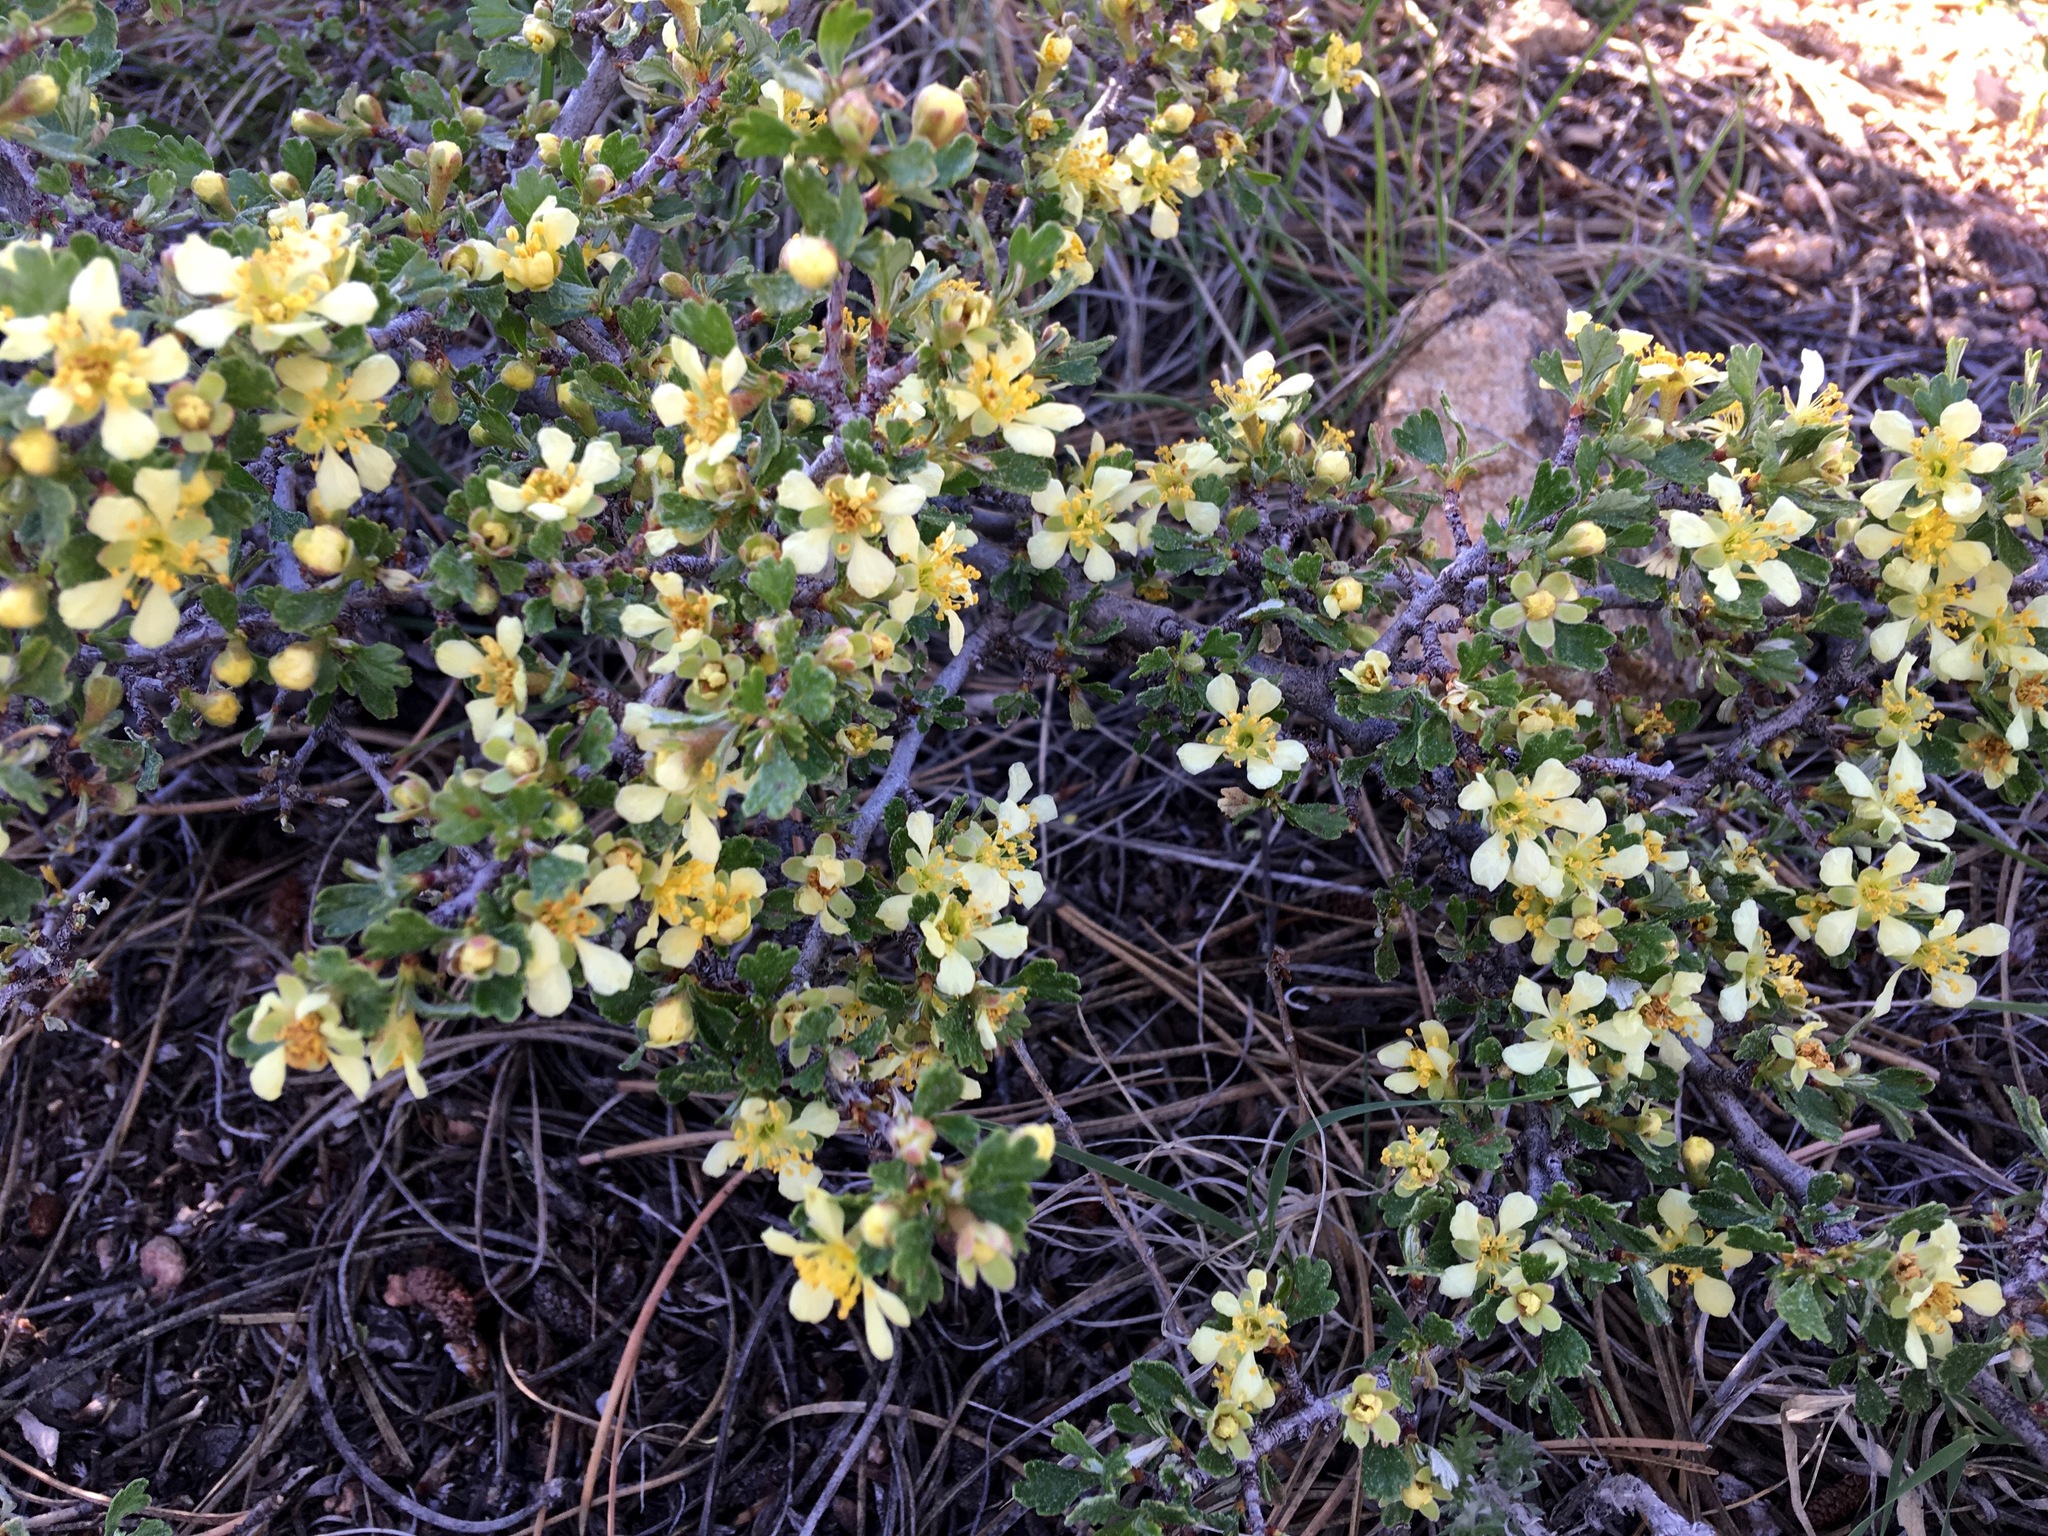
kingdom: Plantae
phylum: Tracheophyta
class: Magnoliopsida
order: Rosales
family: Rosaceae
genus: Purshia
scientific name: Purshia tridentata
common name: Antelope bitterbrush
